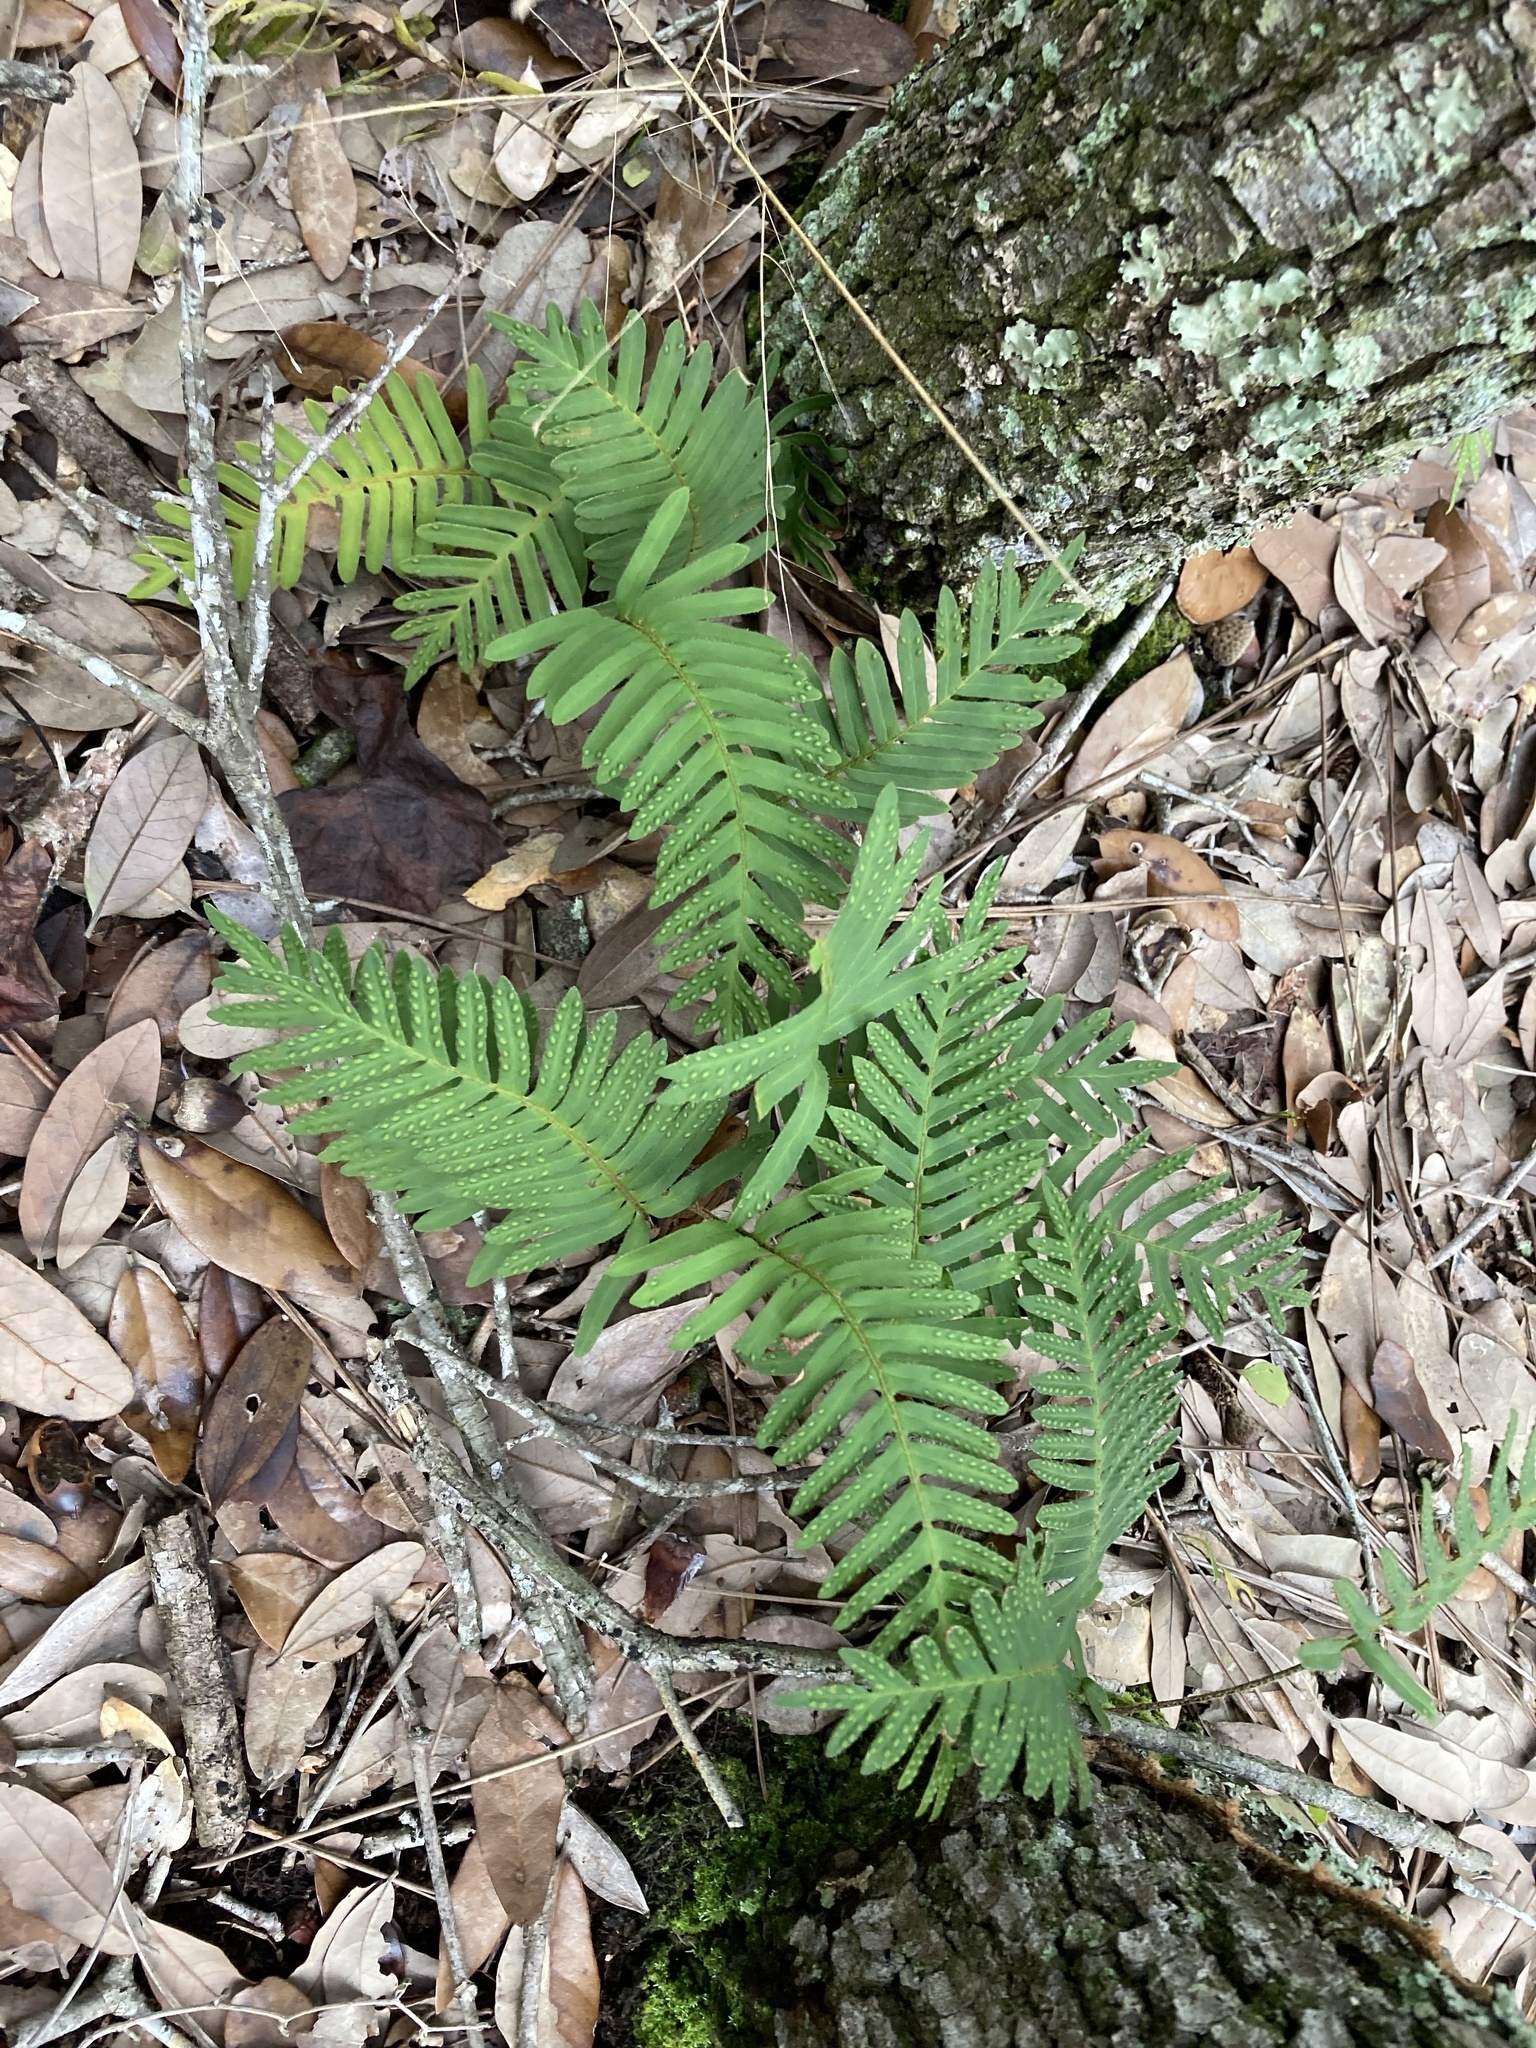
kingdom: Plantae
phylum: Tracheophyta
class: Polypodiopsida
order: Polypodiales
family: Polypodiaceae
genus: Pleopeltis
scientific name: Pleopeltis michauxiana
